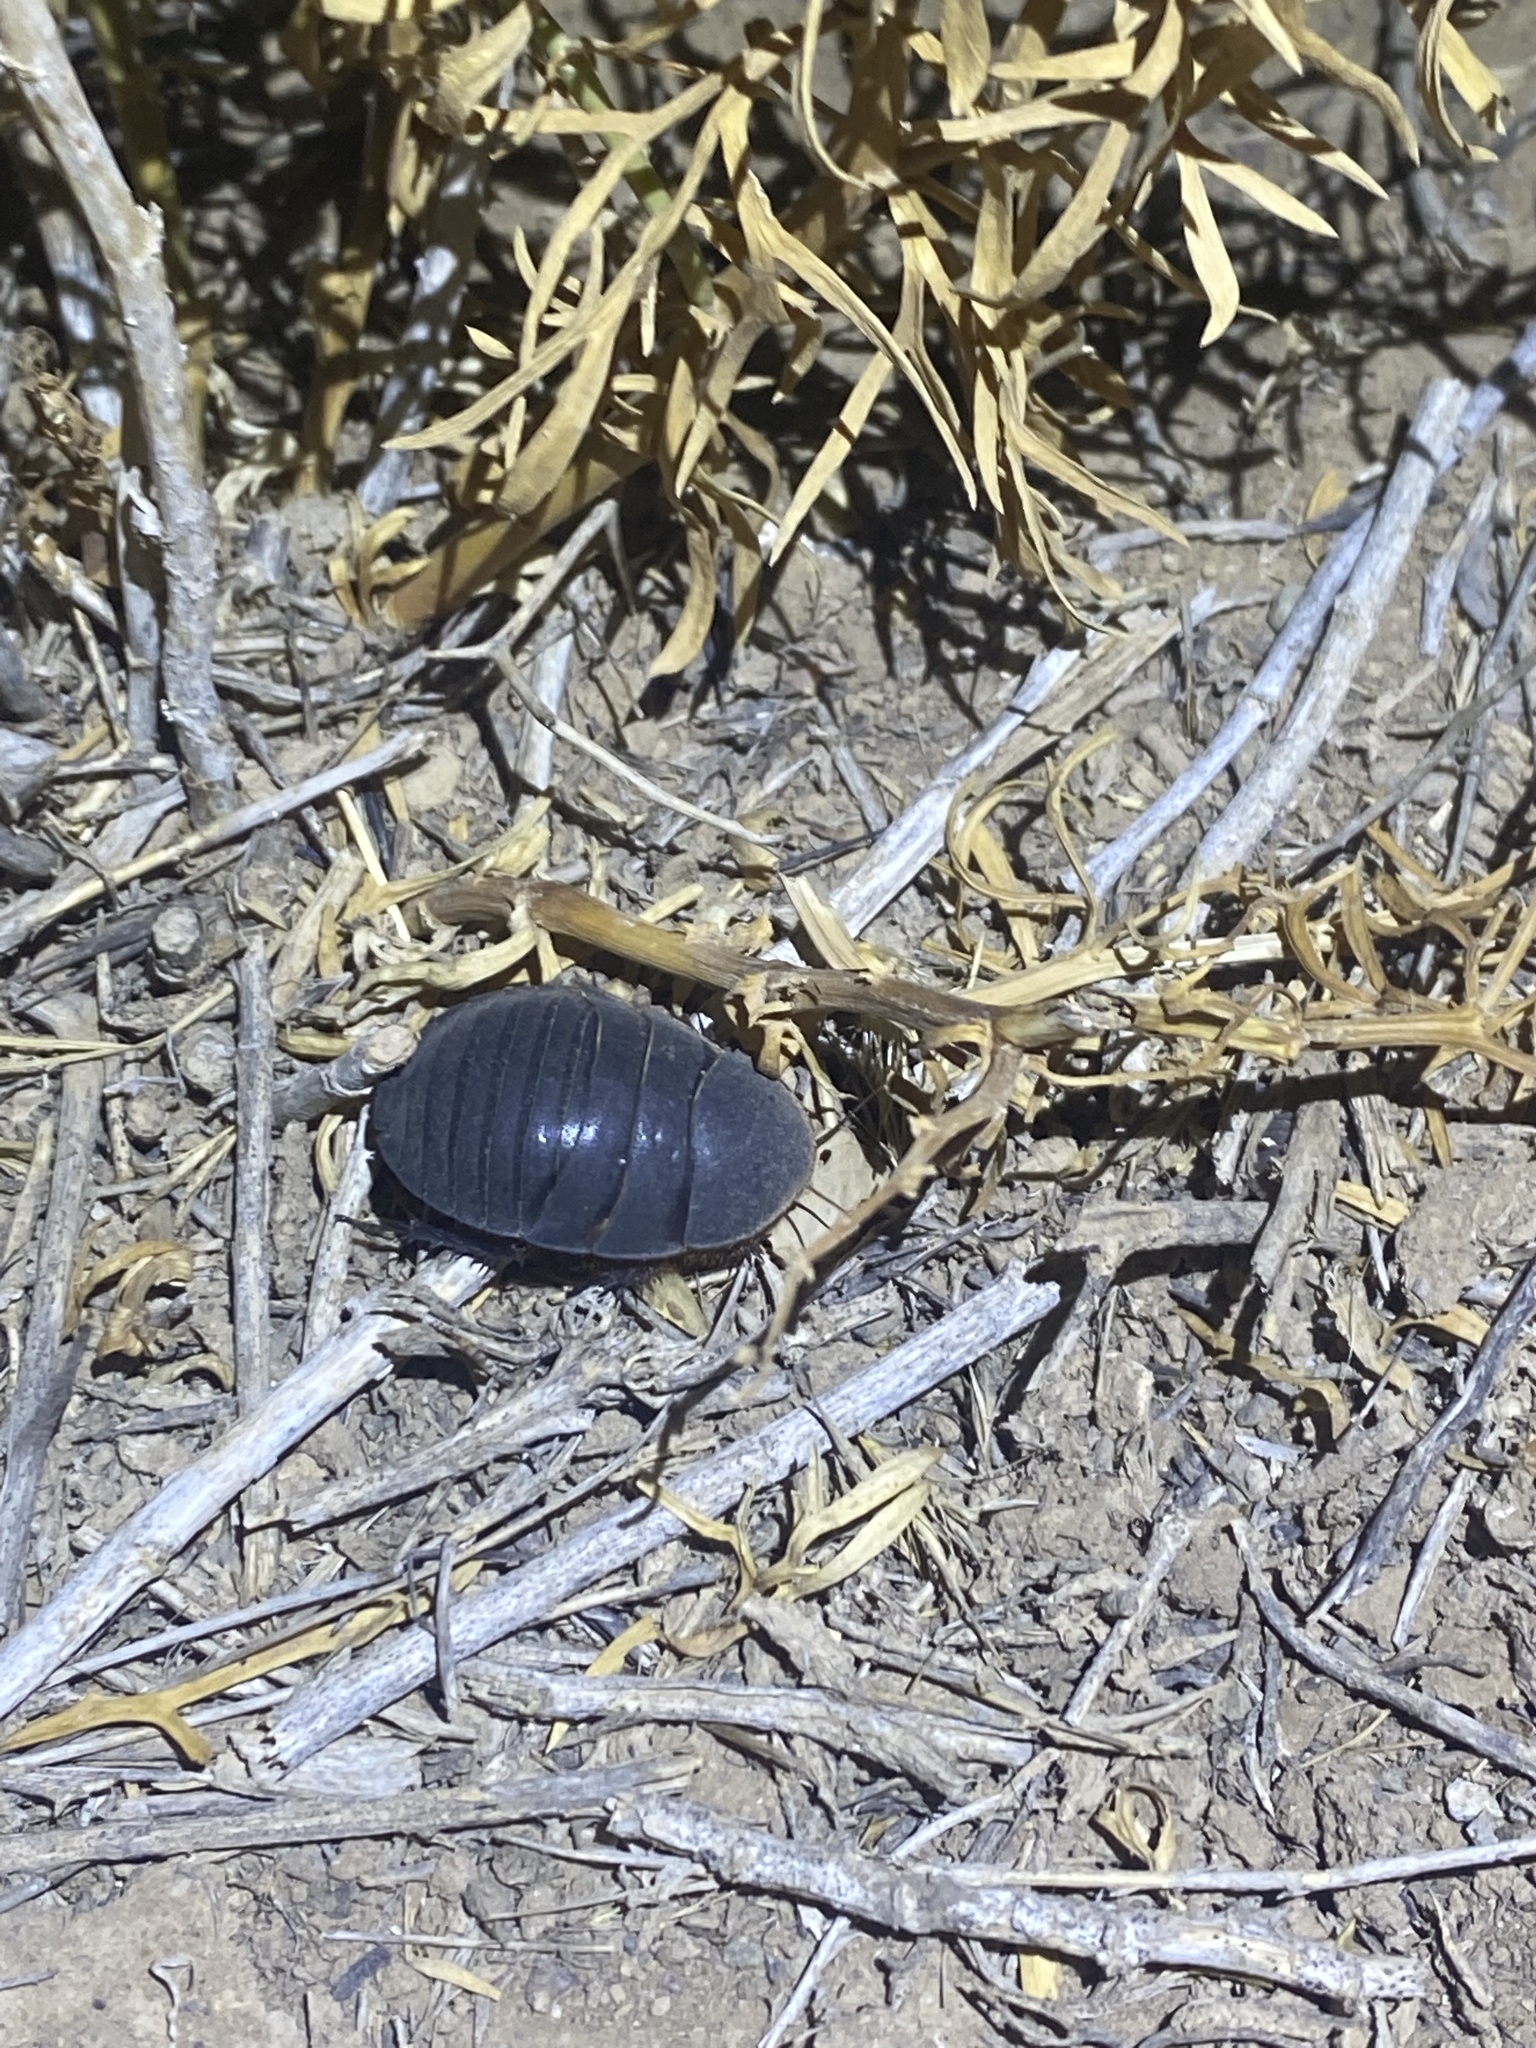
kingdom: Animalia
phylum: Arthropoda
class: Insecta
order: Blattodea
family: Corydiidae
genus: Polyphaga
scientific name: Polyphaga aegyptiaca
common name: Egyptian cockroach
